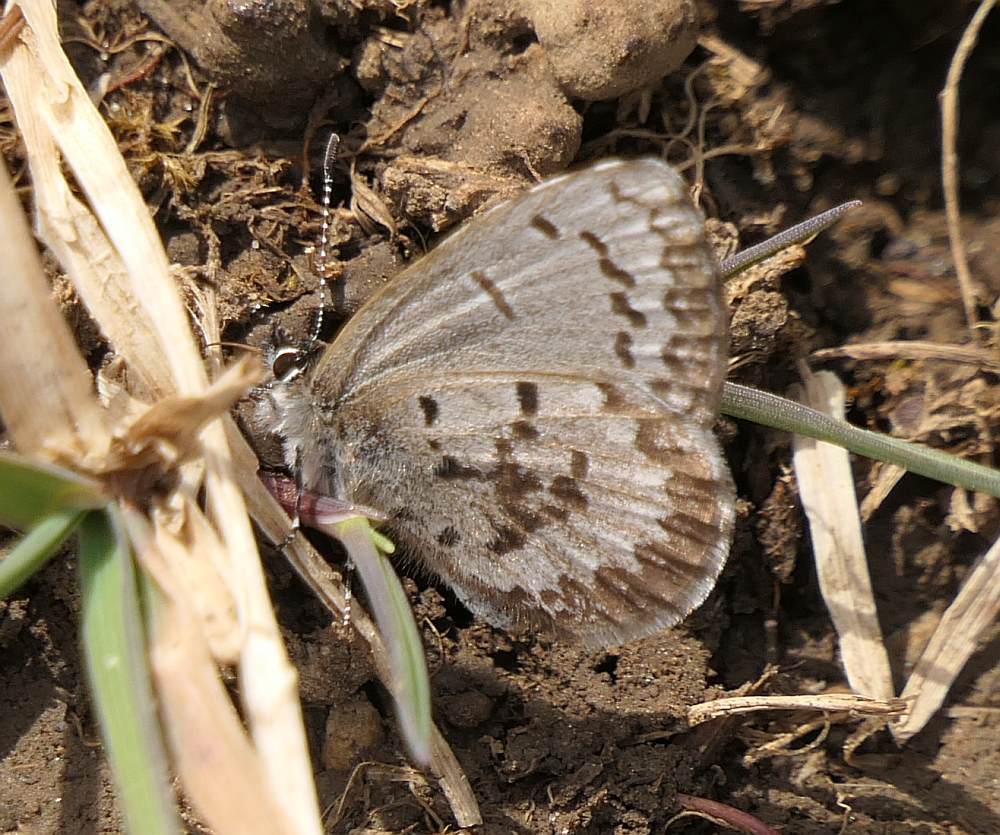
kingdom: Animalia
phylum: Arthropoda
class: Insecta
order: Lepidoptera
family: Lycaenidae
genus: Celastrina
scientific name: Celastrina lucia
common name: Lucia azure
